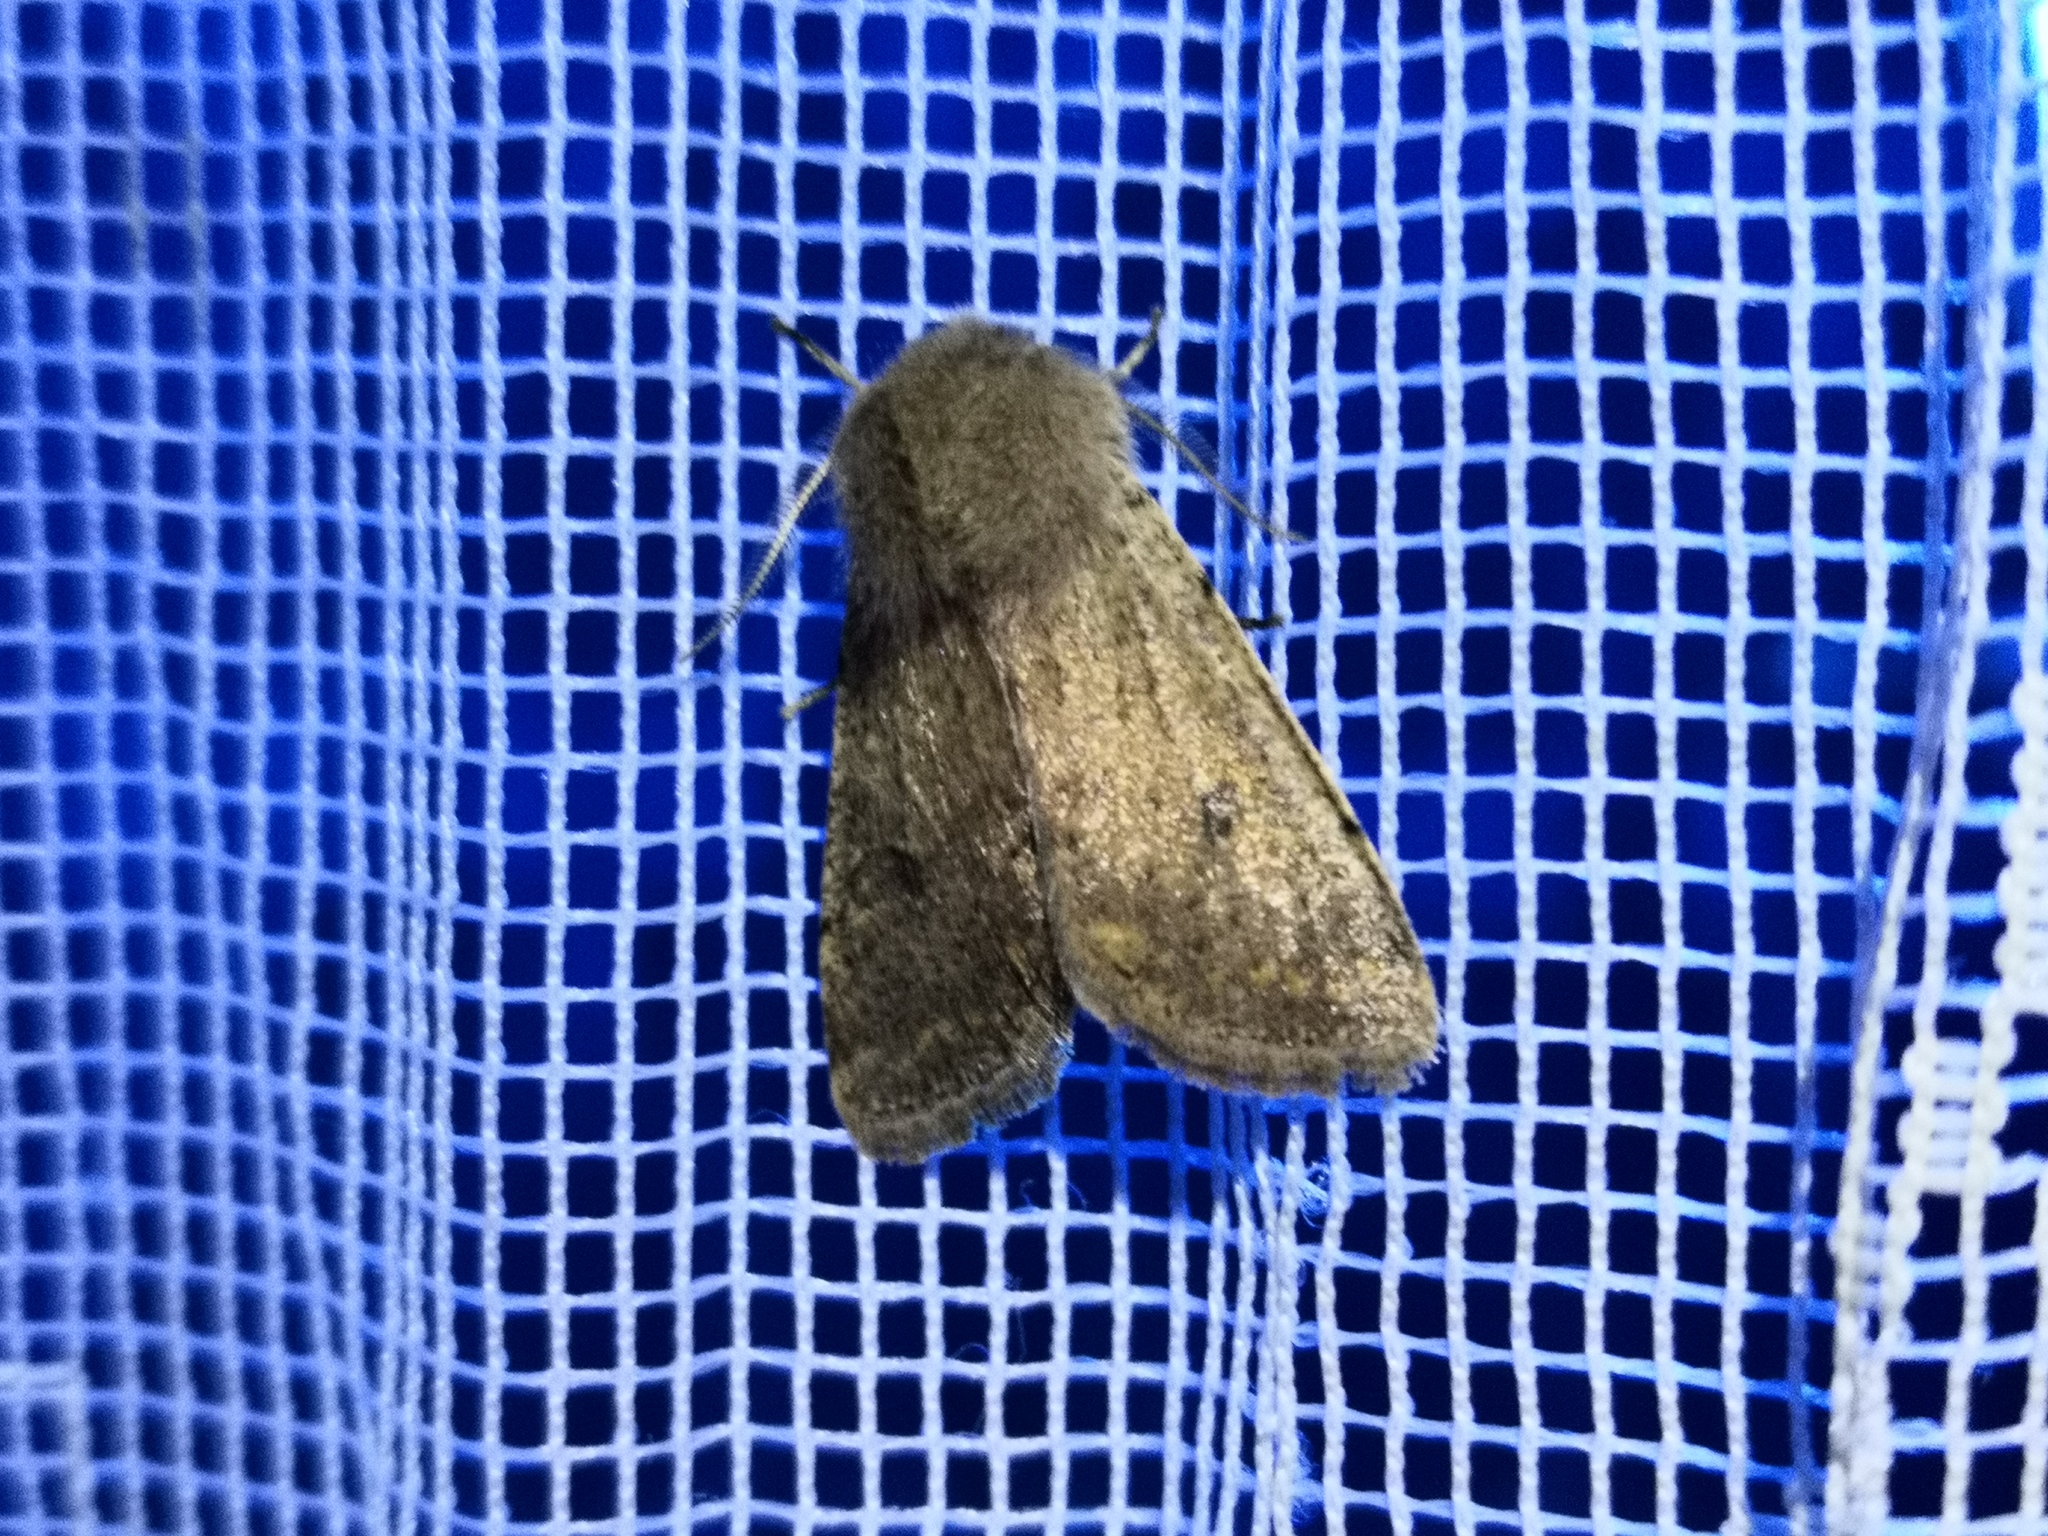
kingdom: Animalia
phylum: Arthropoda
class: Insecta
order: Lepidoptera
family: Noctuidae
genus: Orthosia
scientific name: Orthosia cruda
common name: Small quaker
